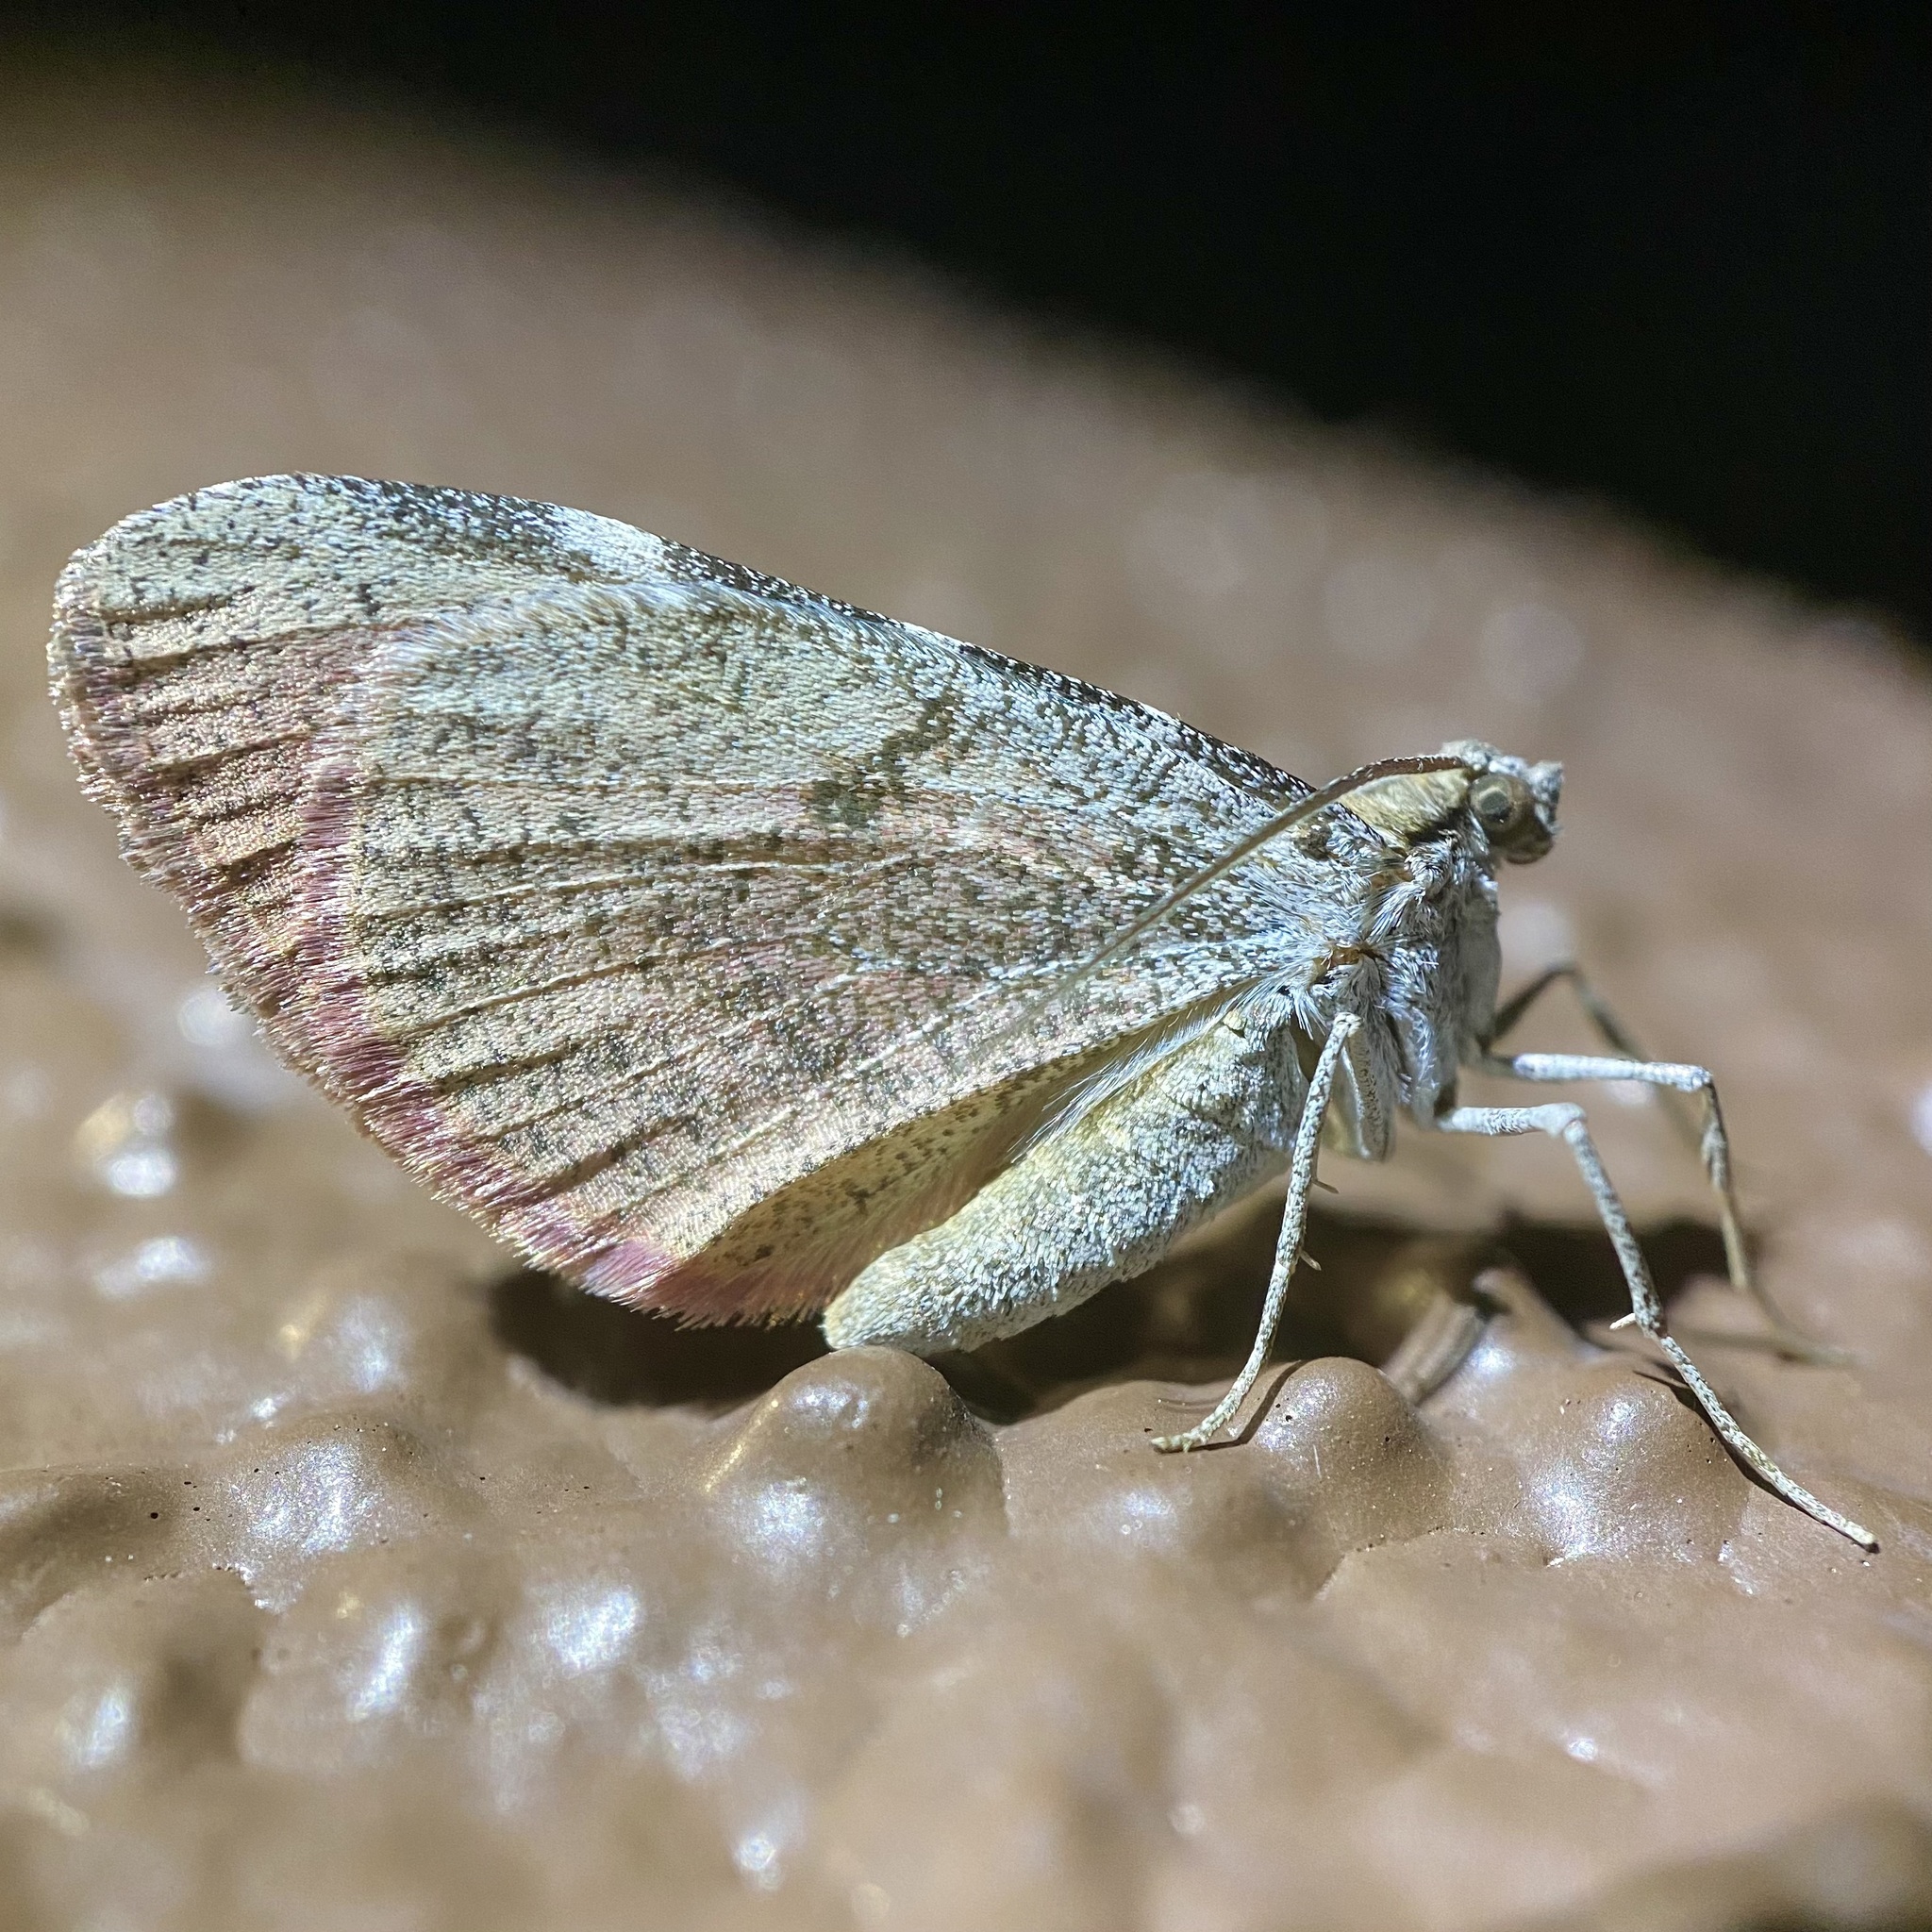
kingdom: Animalia
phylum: Arthropoda
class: Insecta
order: Lepidoptera
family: Geometridae
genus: Stamnodes
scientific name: Stamnodes seiferti
